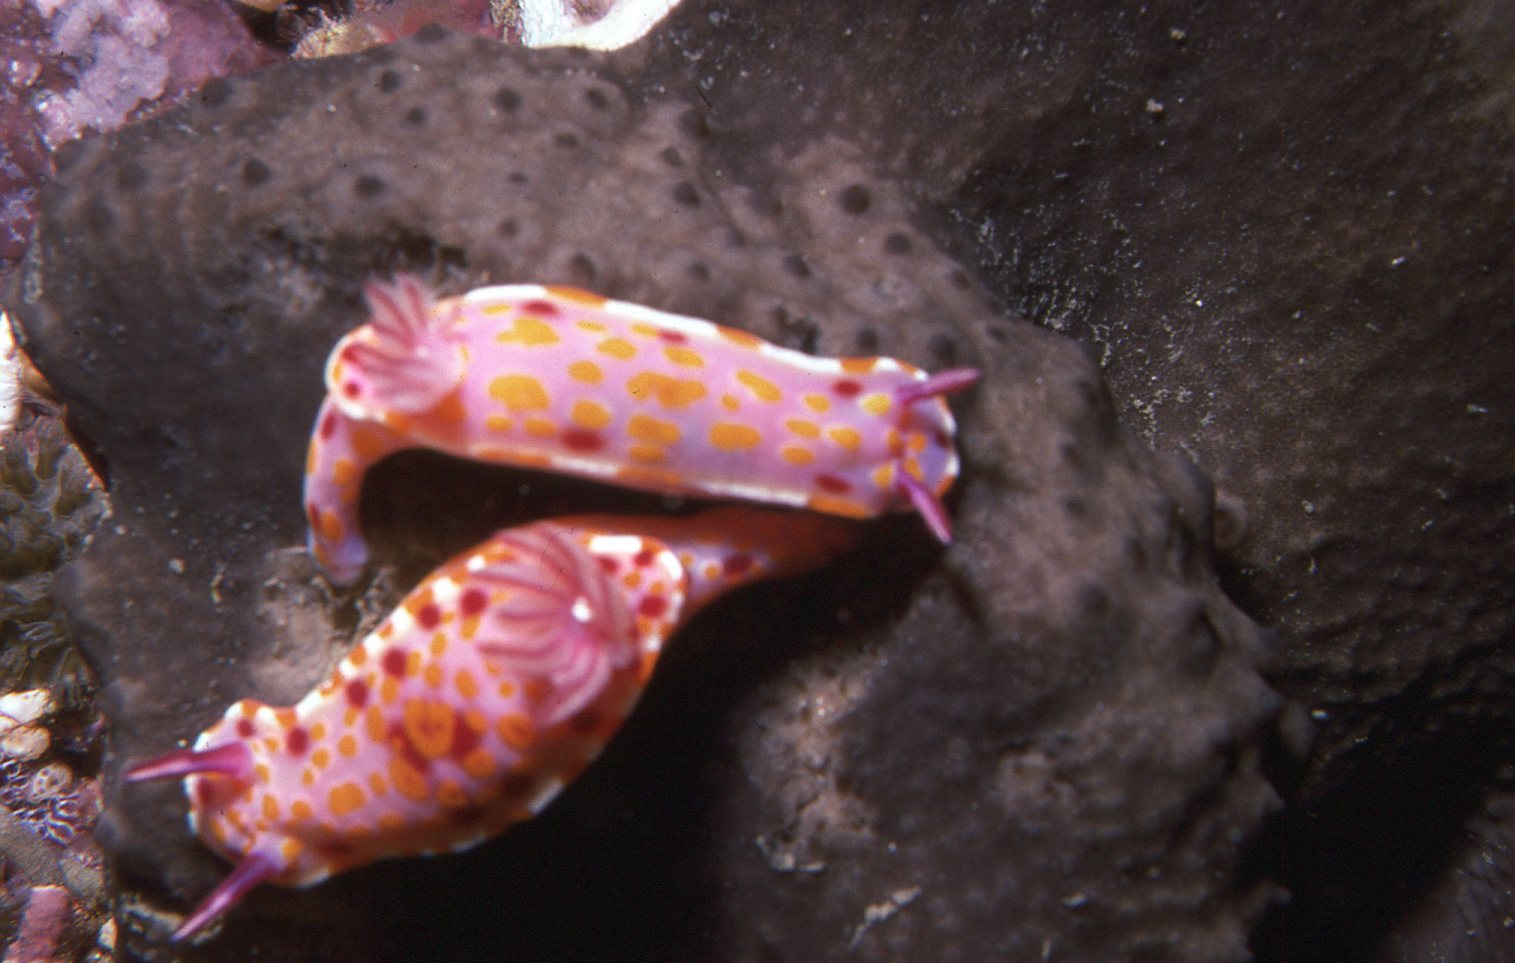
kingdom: Animalia
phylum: Mollusca
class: Gastropoda
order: Nudibranchia
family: Chromodorididae
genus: Ceratosoma
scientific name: Ceratosoma amoenum
